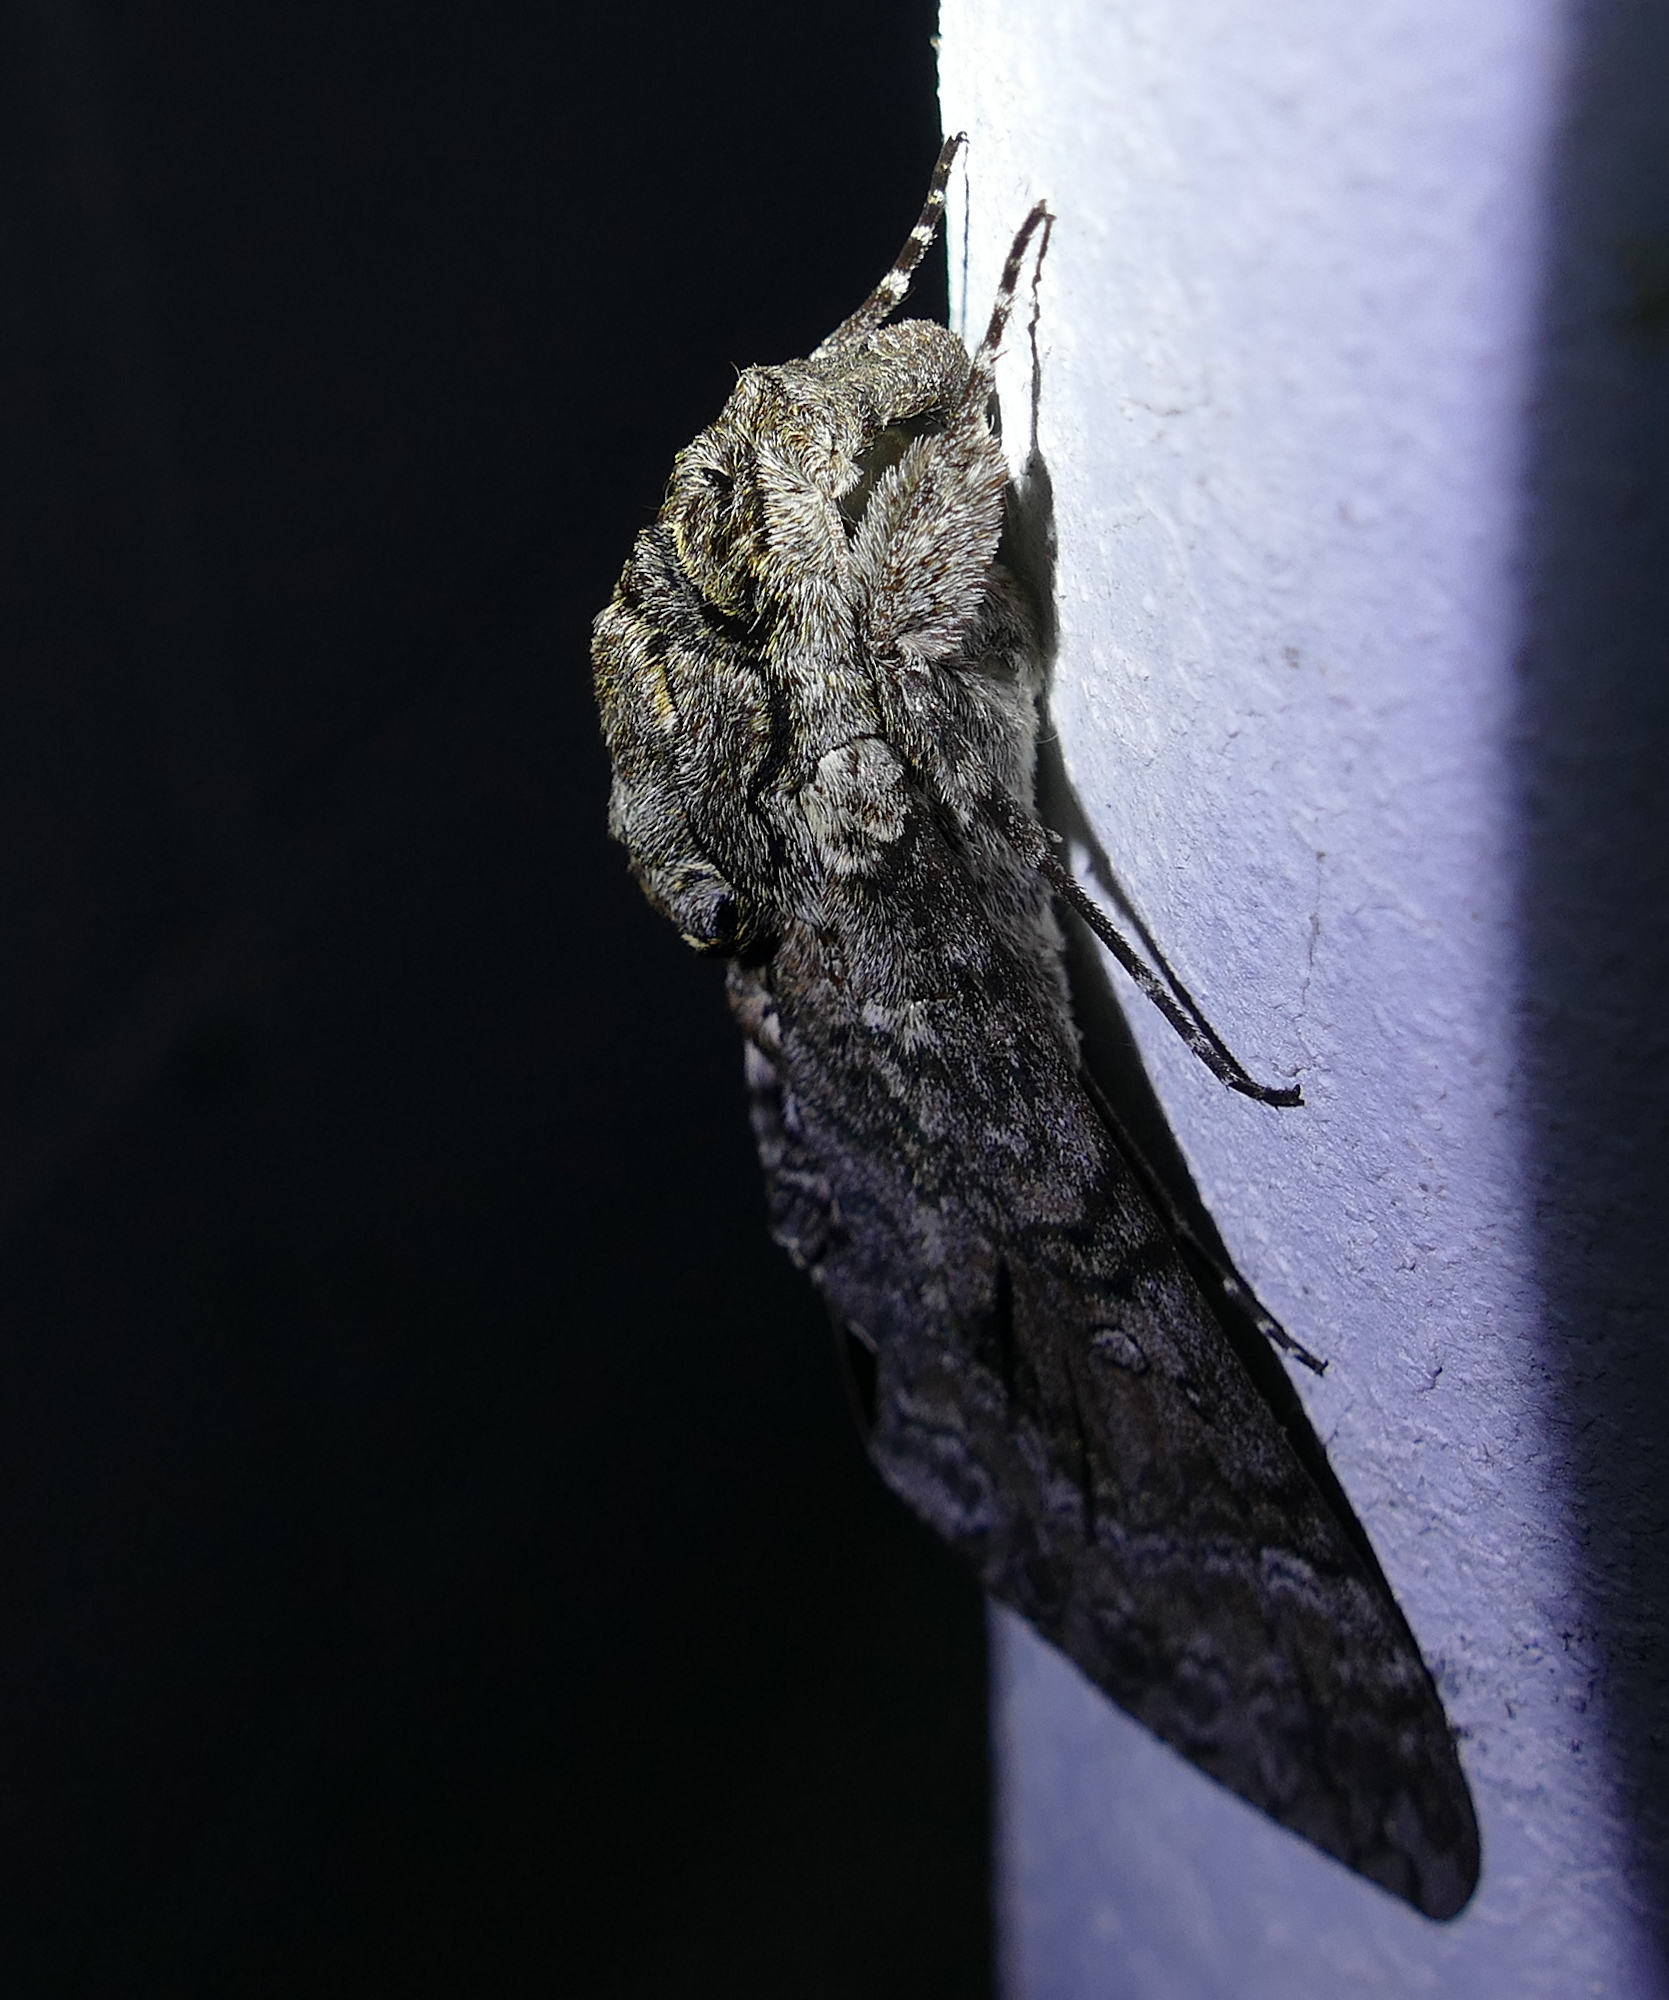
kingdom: Animalia
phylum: Arthropoda
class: Insecta
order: Lepidoptera
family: Sphingidae
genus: Agrius
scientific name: Agrius cingulata
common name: Pink-spotted hawkmoth
